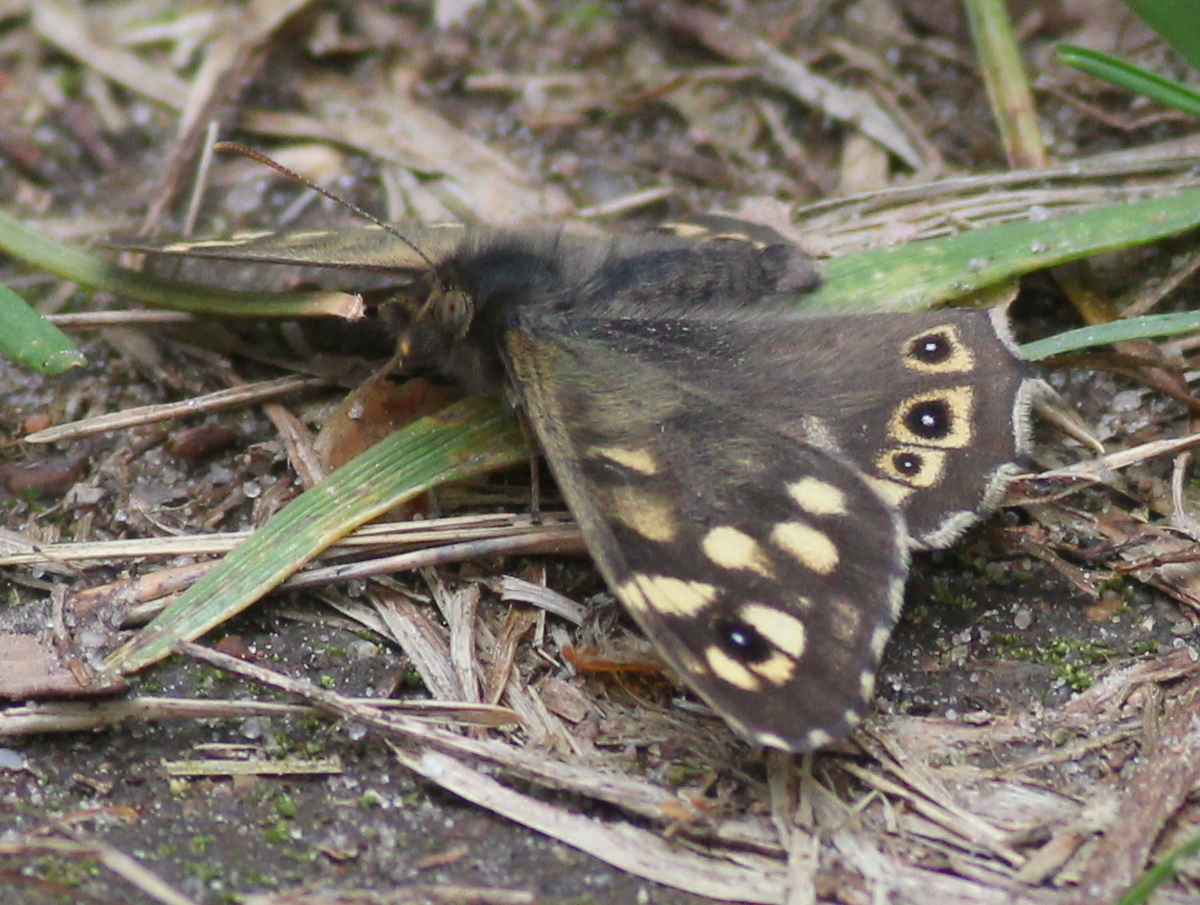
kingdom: Animalia
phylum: Arthropoda
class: Insecta
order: Lepidoptera
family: Nymphalidae
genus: Pararge
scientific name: Pararge aegeria
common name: Speckled wood
